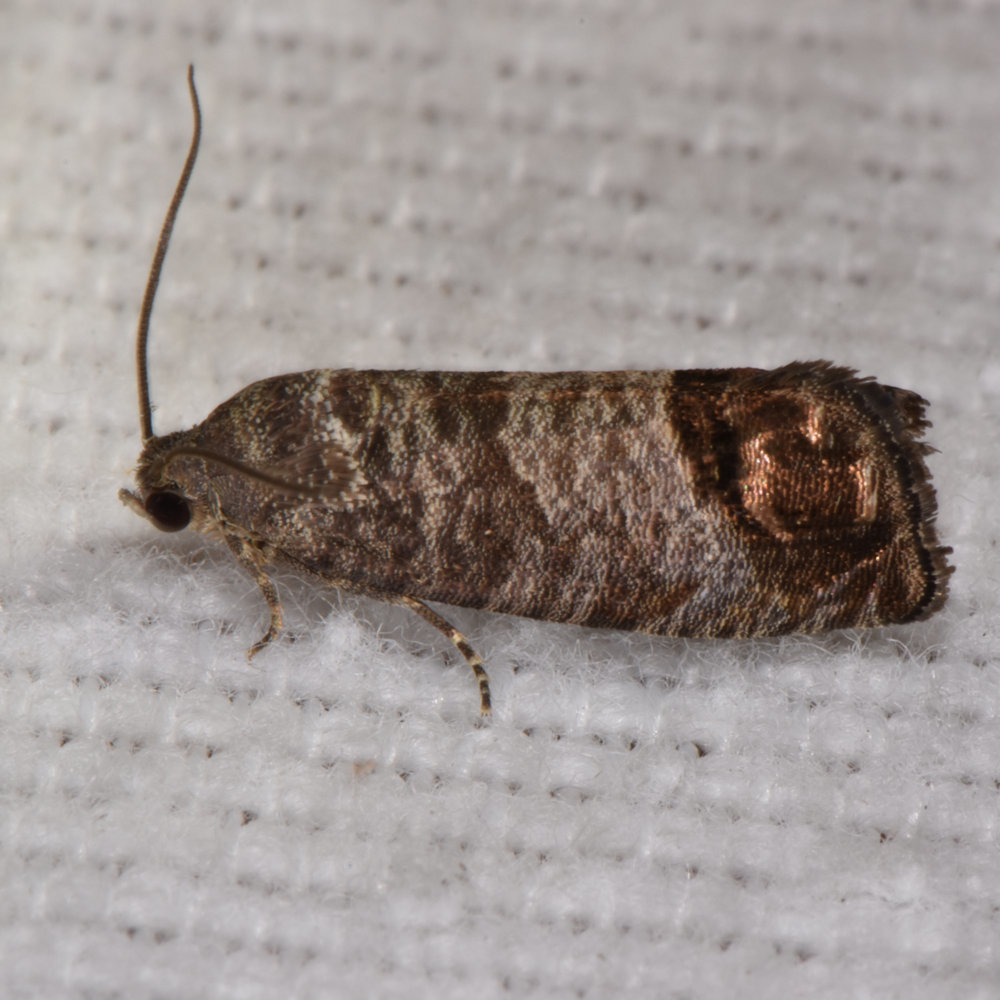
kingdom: Animalia
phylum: Arthropoda
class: Insecta
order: Lepidoptera
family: Tortricidae
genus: Cydia
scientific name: Cydia pomonella
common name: Codling moth
